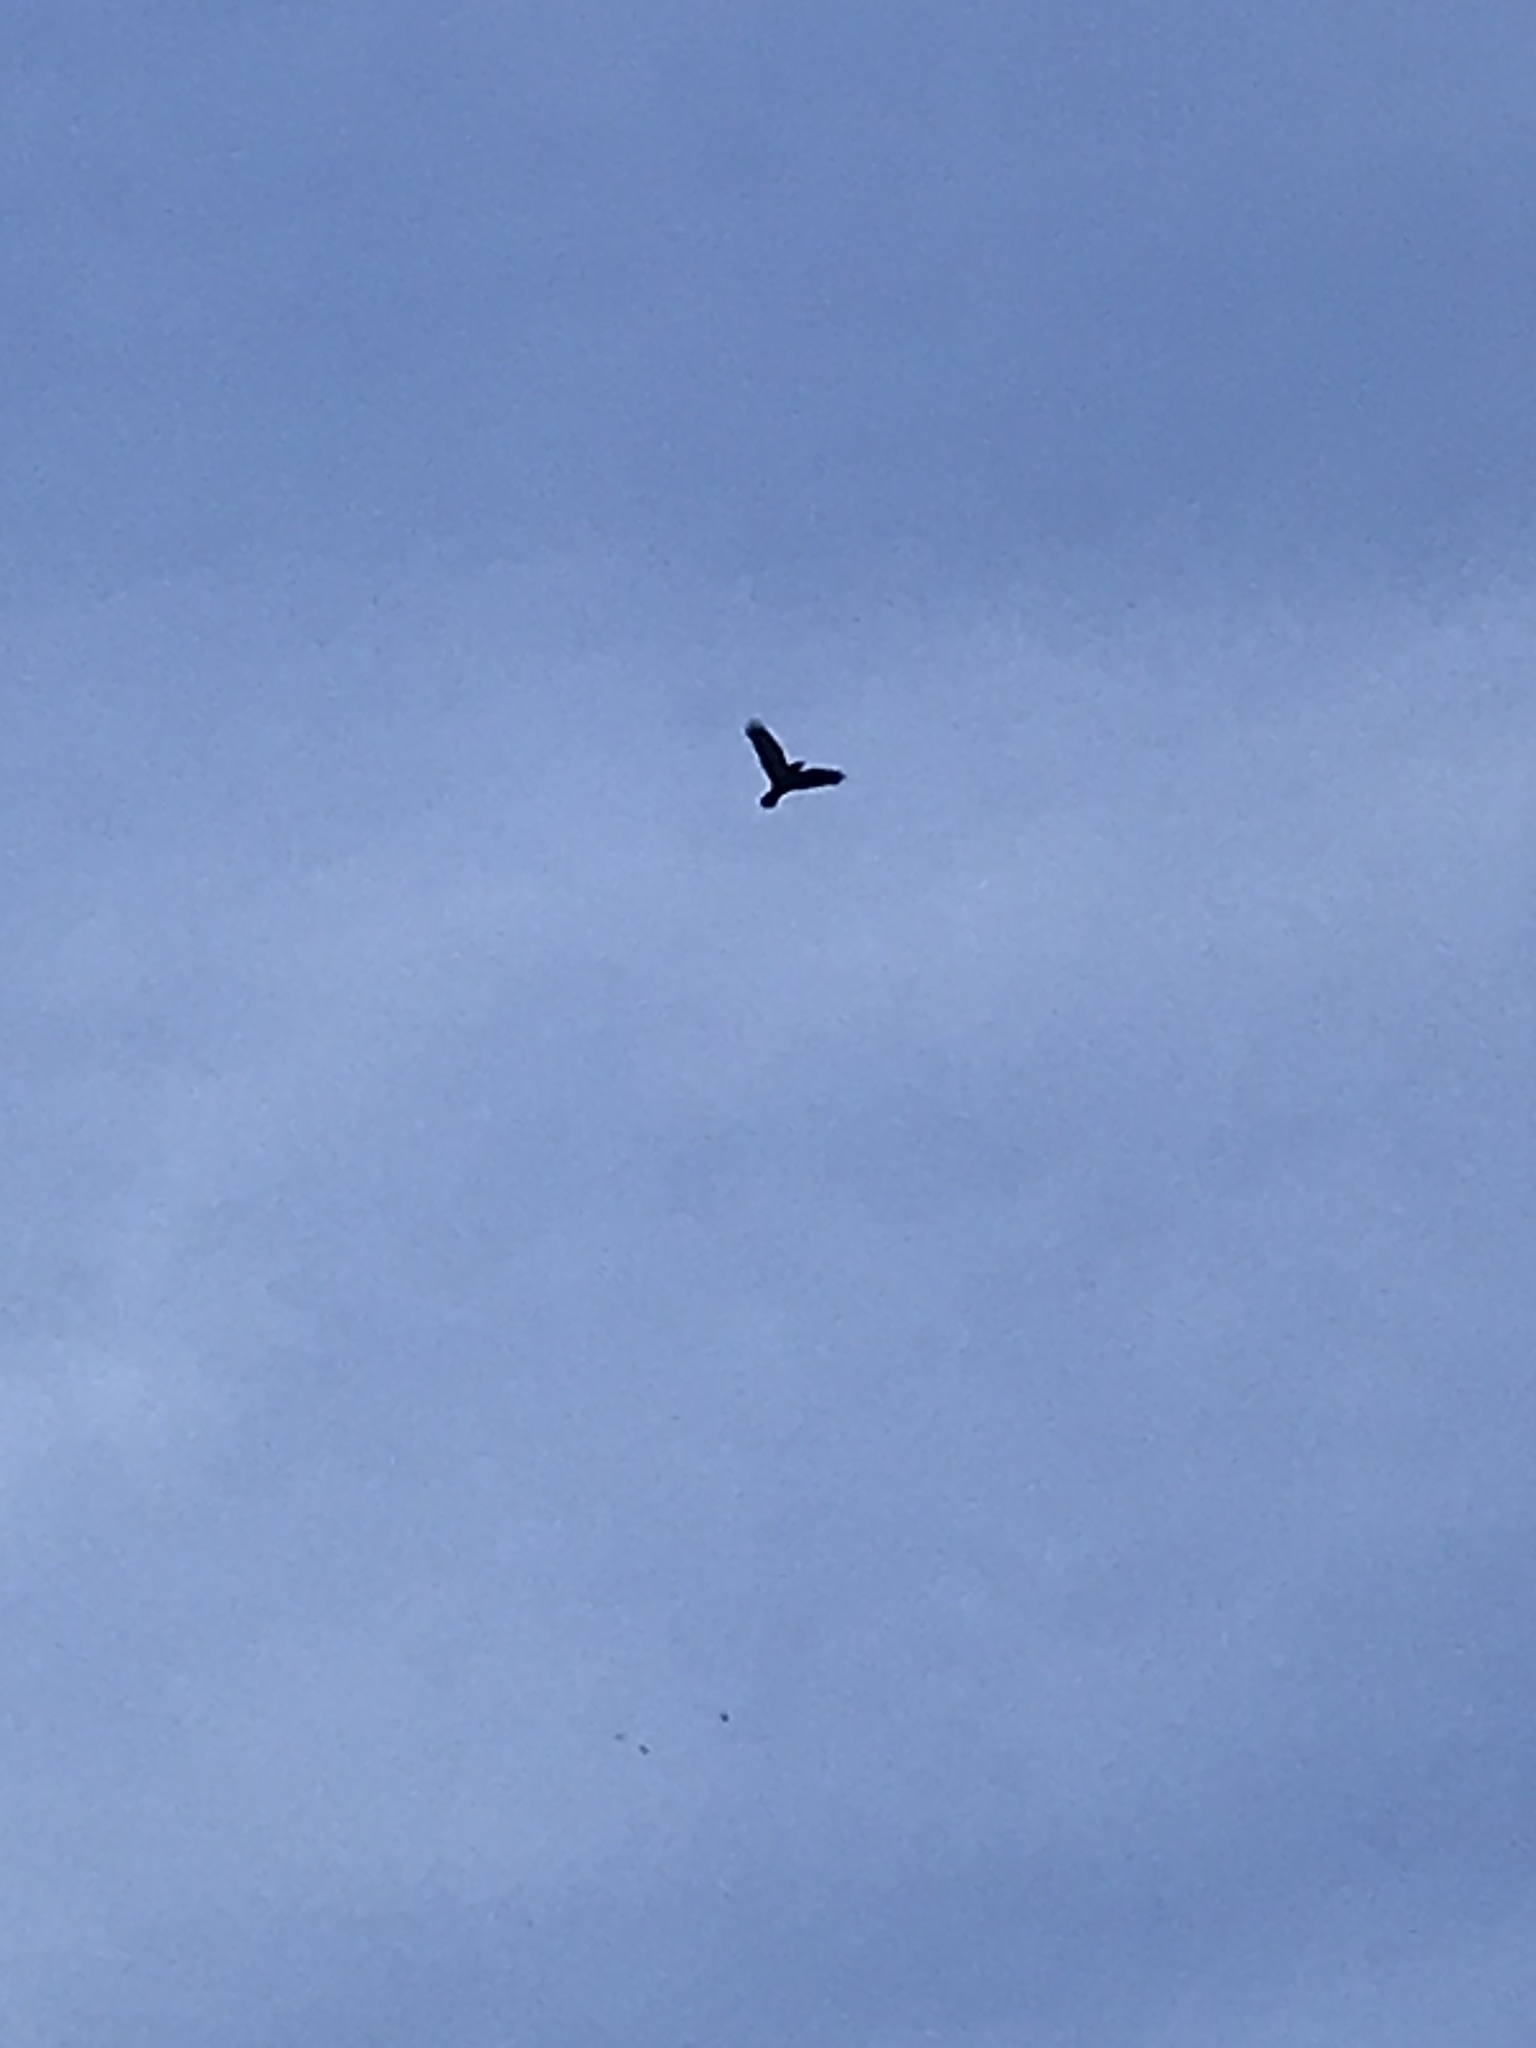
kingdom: Animalia
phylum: Chordata
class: Aves
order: Passeriformes
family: Corvidae
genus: Corvus
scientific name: Corvus brachyrhynchos
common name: American crow
